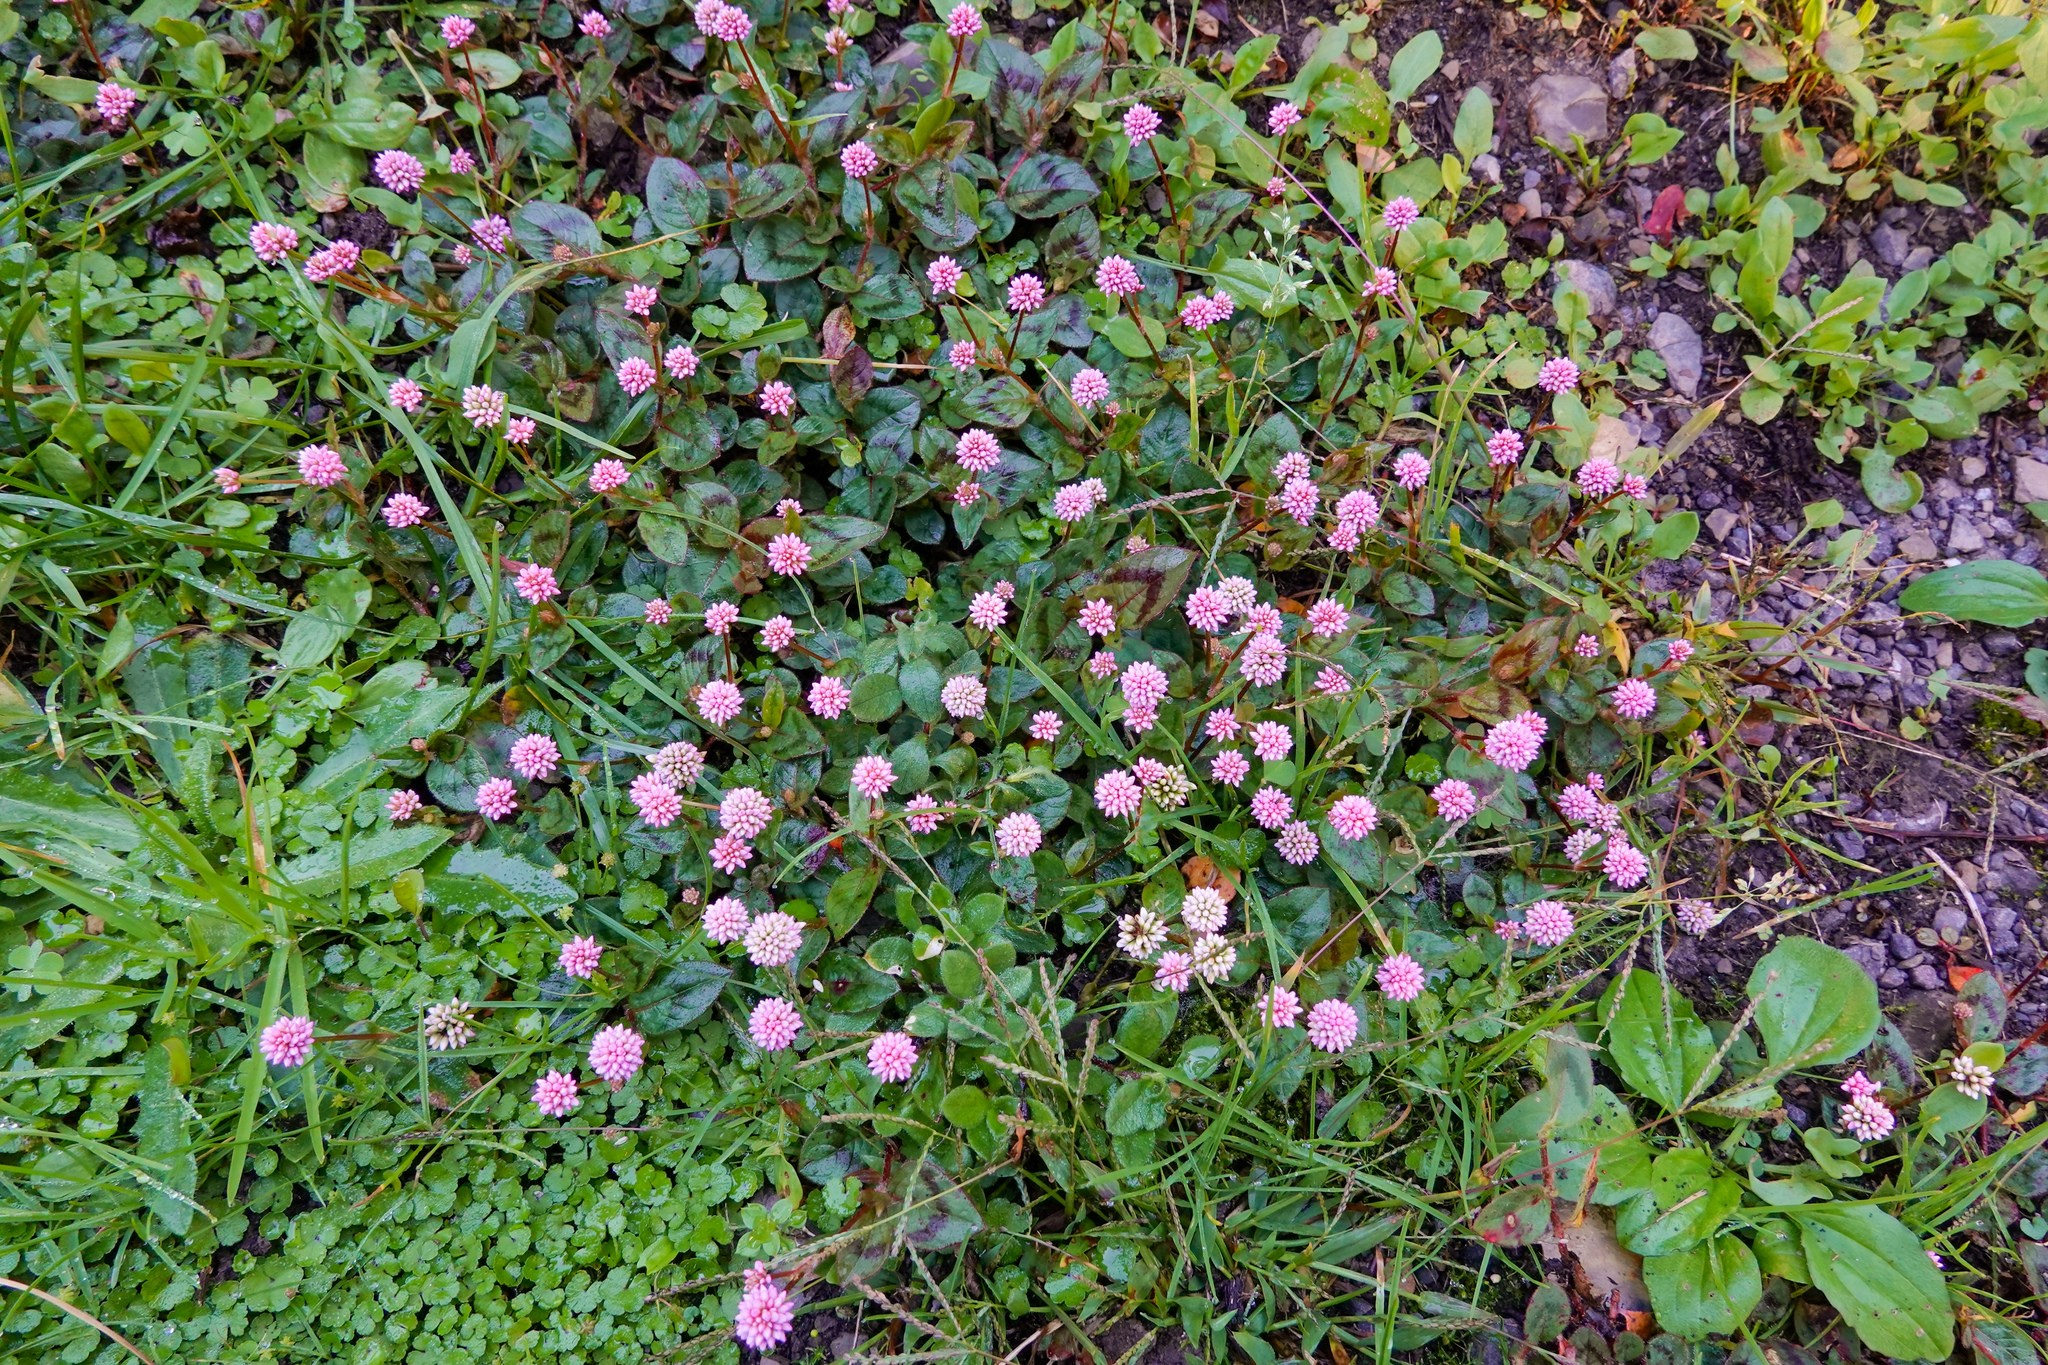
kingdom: Plantae
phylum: Tracheophyta
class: Magnoliopsida
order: Caryophyllales
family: Polygonaceae
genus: Persicaria
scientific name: Persicaria capitata
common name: Pinkhead smartweed
